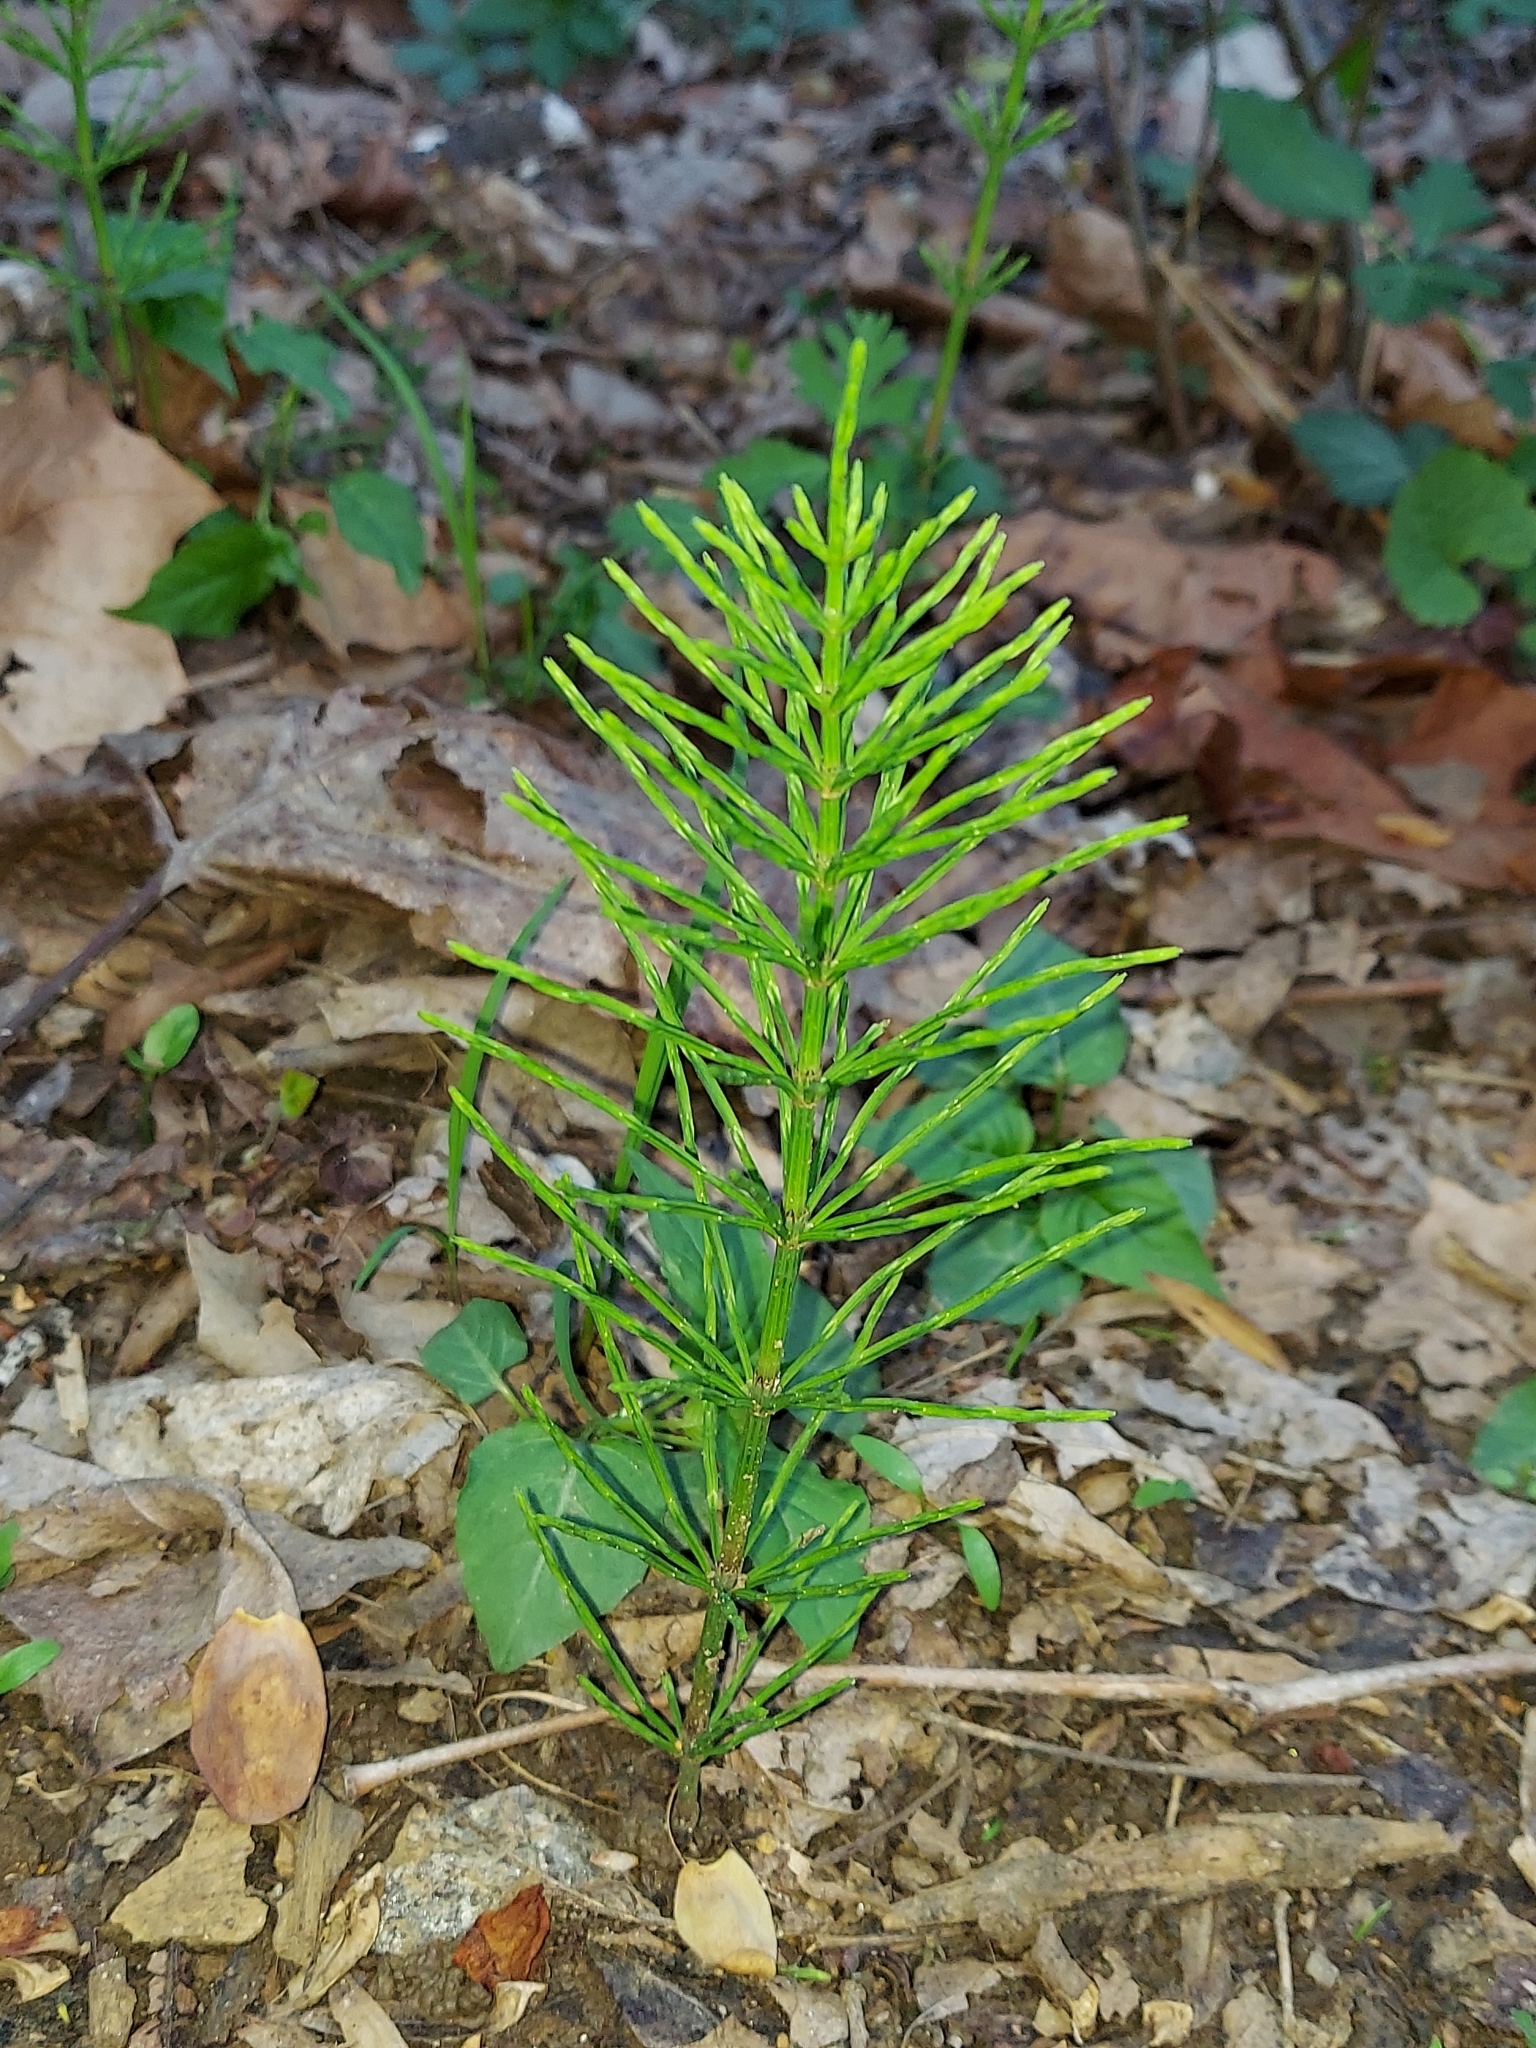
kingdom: Plantae
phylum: Tracheophyta
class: Polypodiopsida
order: Equisetales
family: Equisetaceae
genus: Equisetum
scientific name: Equisetum arvense
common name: Field horsetail
